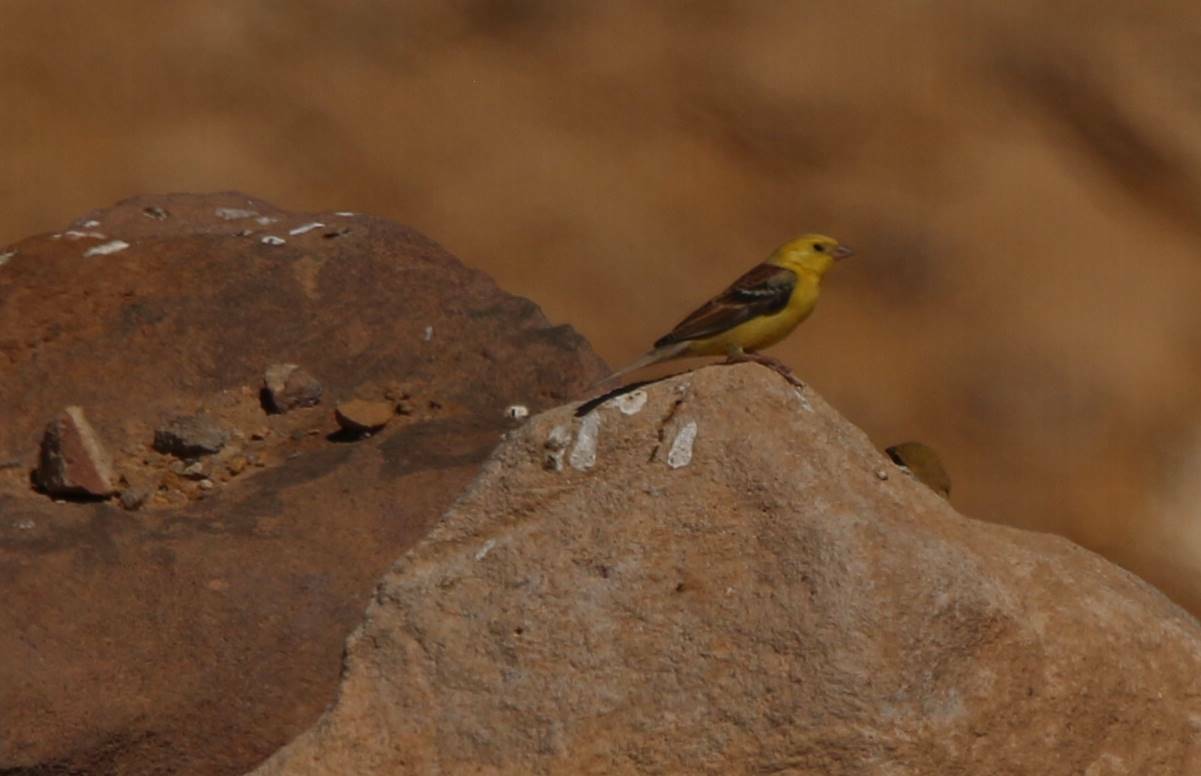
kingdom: Animalia
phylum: Chordata
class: Aves
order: Passeriformes
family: Passeridae
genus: Passer
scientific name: Passer luteus
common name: Sudan golden sparrow
